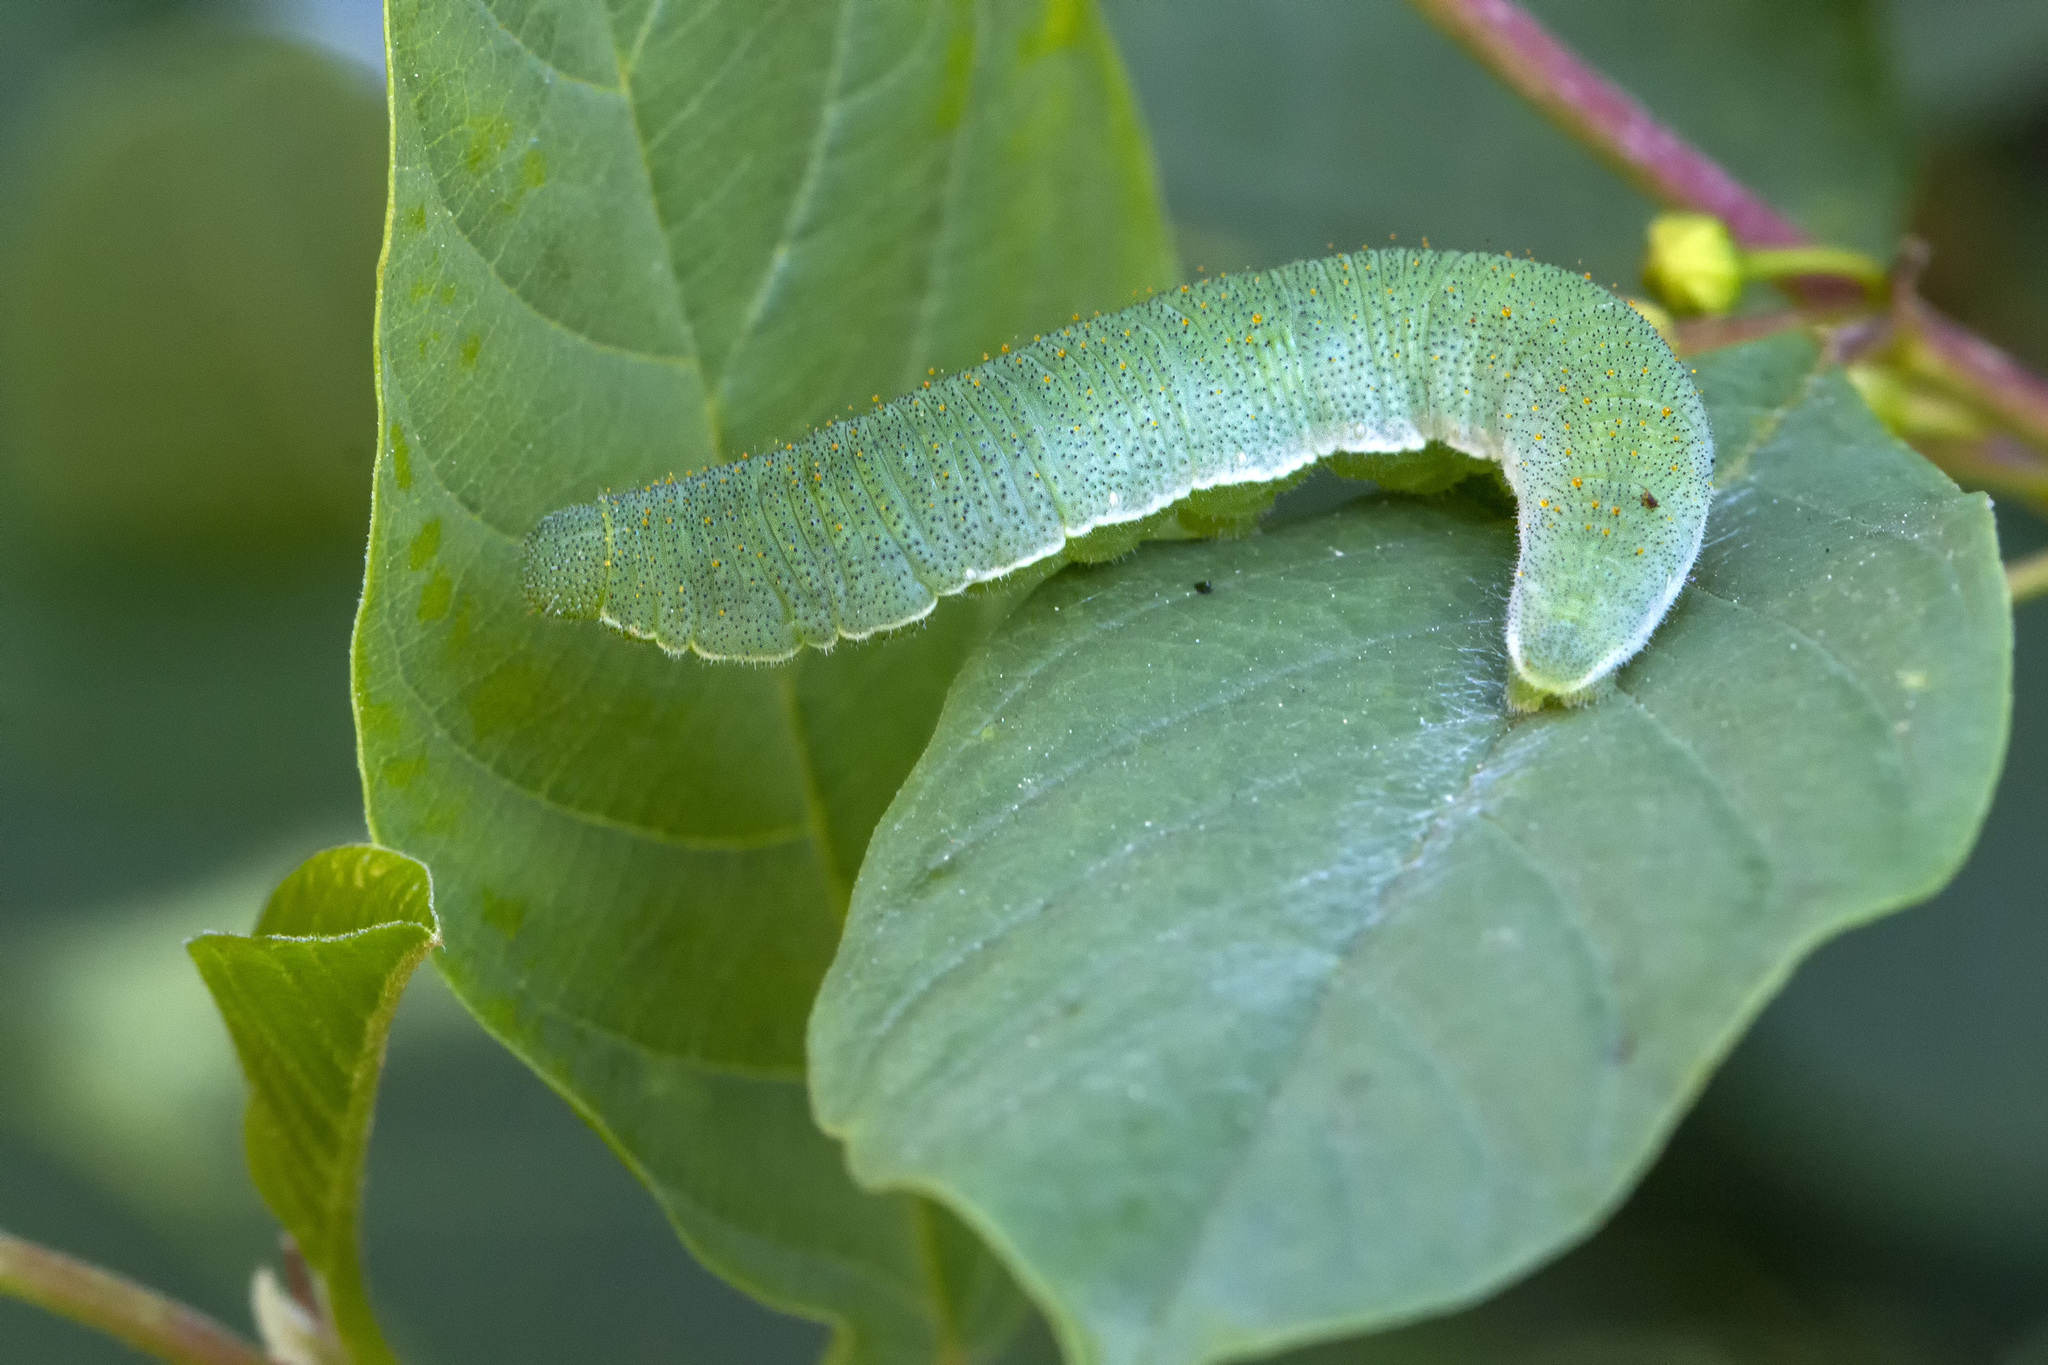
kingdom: Animalia
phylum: Arthropoda
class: Insecta
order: Lepidoptera
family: Pieridae
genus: Gonepteryx
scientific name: Gonepteryx rhamni
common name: Brimstone
